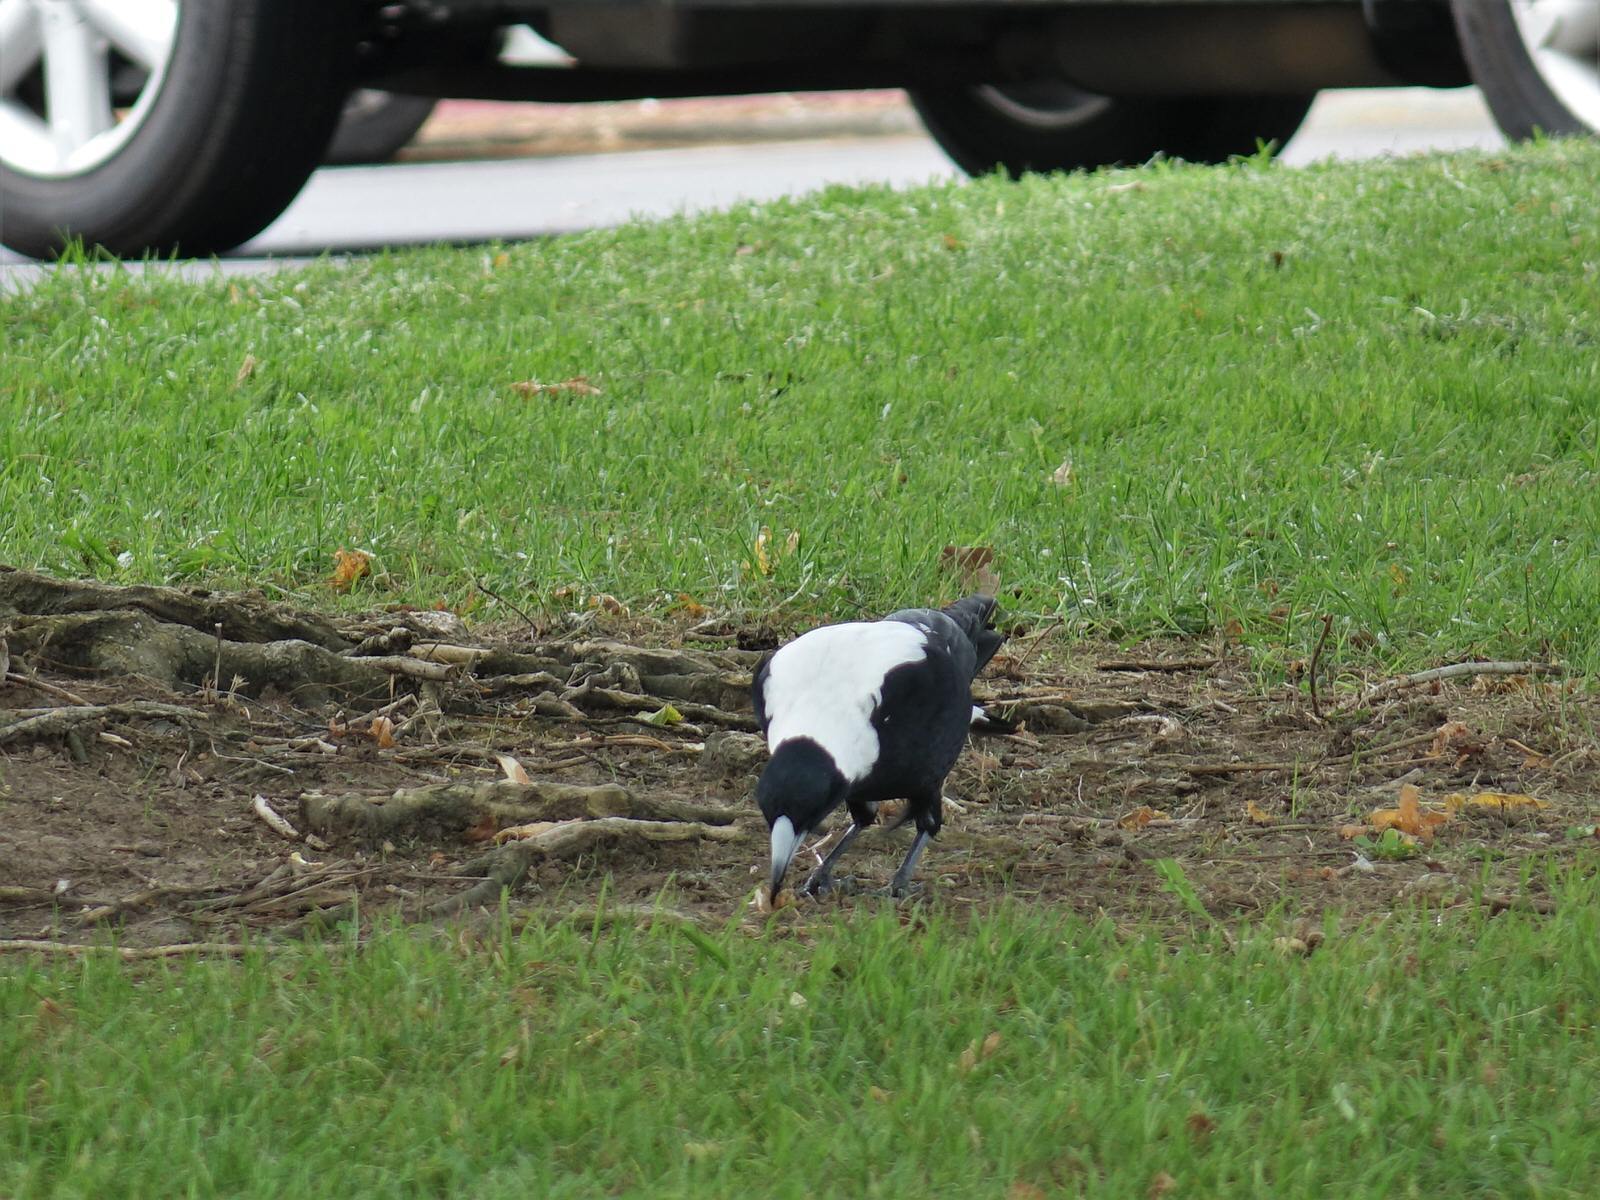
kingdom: Animalia
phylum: Chordata
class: Aves
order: Passeriformes
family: Cracticidae
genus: Gymnorhina
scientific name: Gymnorhina tibicen
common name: Australian magpie
